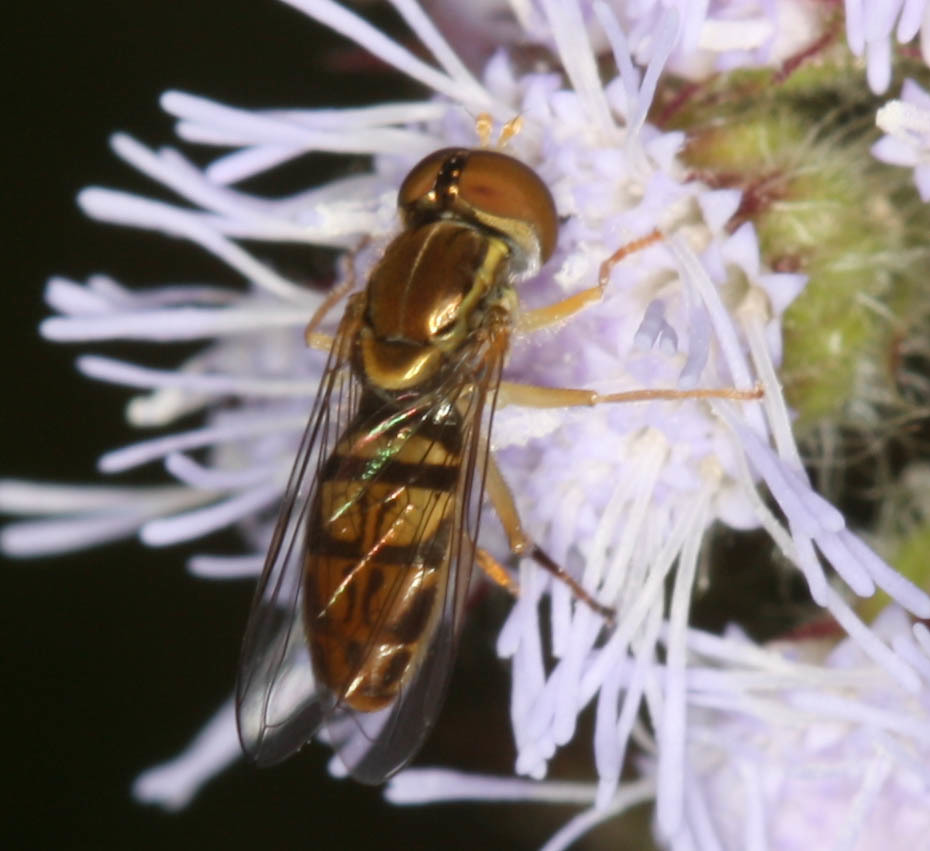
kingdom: Animalia
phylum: Arthropoda
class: Insecta
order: Diptera
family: Syrphidae
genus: Toxomerus
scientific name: Toxomerus marginatus
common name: Syrphid fly
